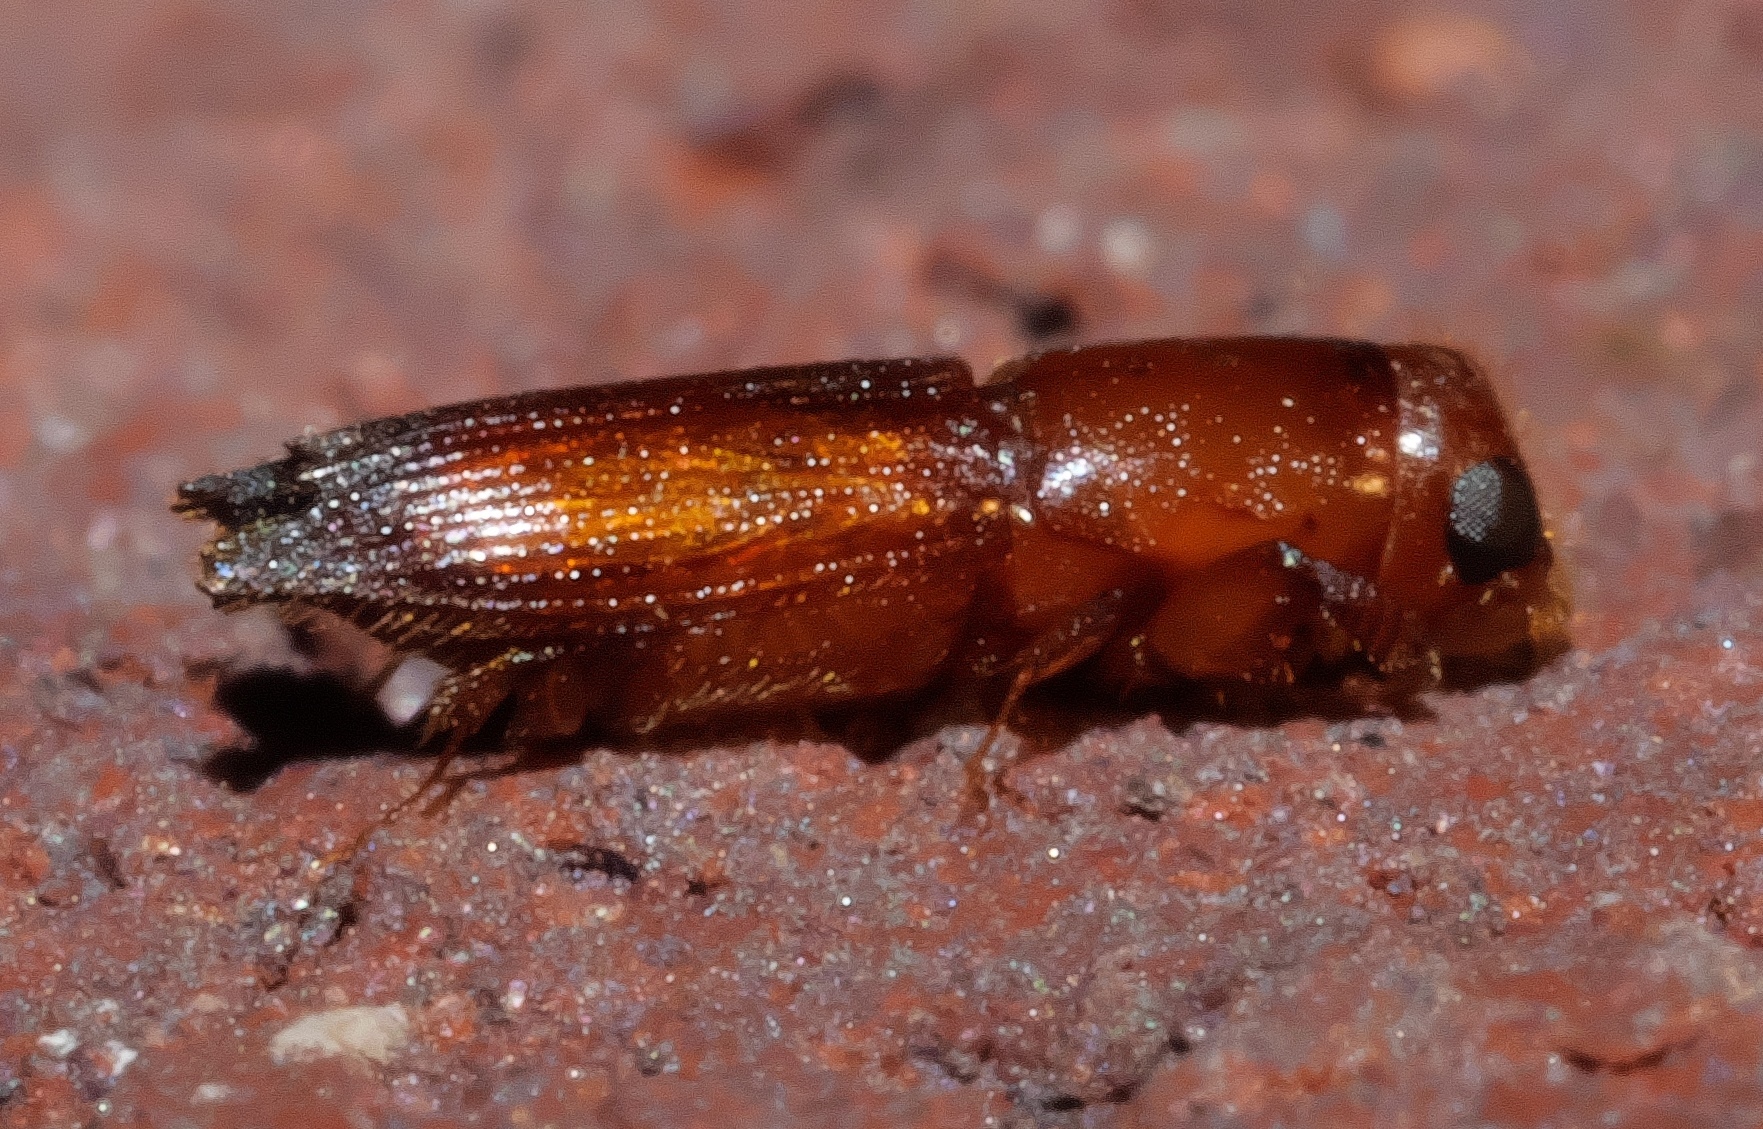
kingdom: Animalia
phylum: Arthropoda
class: Insecta
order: Coleoptera
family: Curculionidae
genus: Euplatypus
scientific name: Euplatypus compositus
